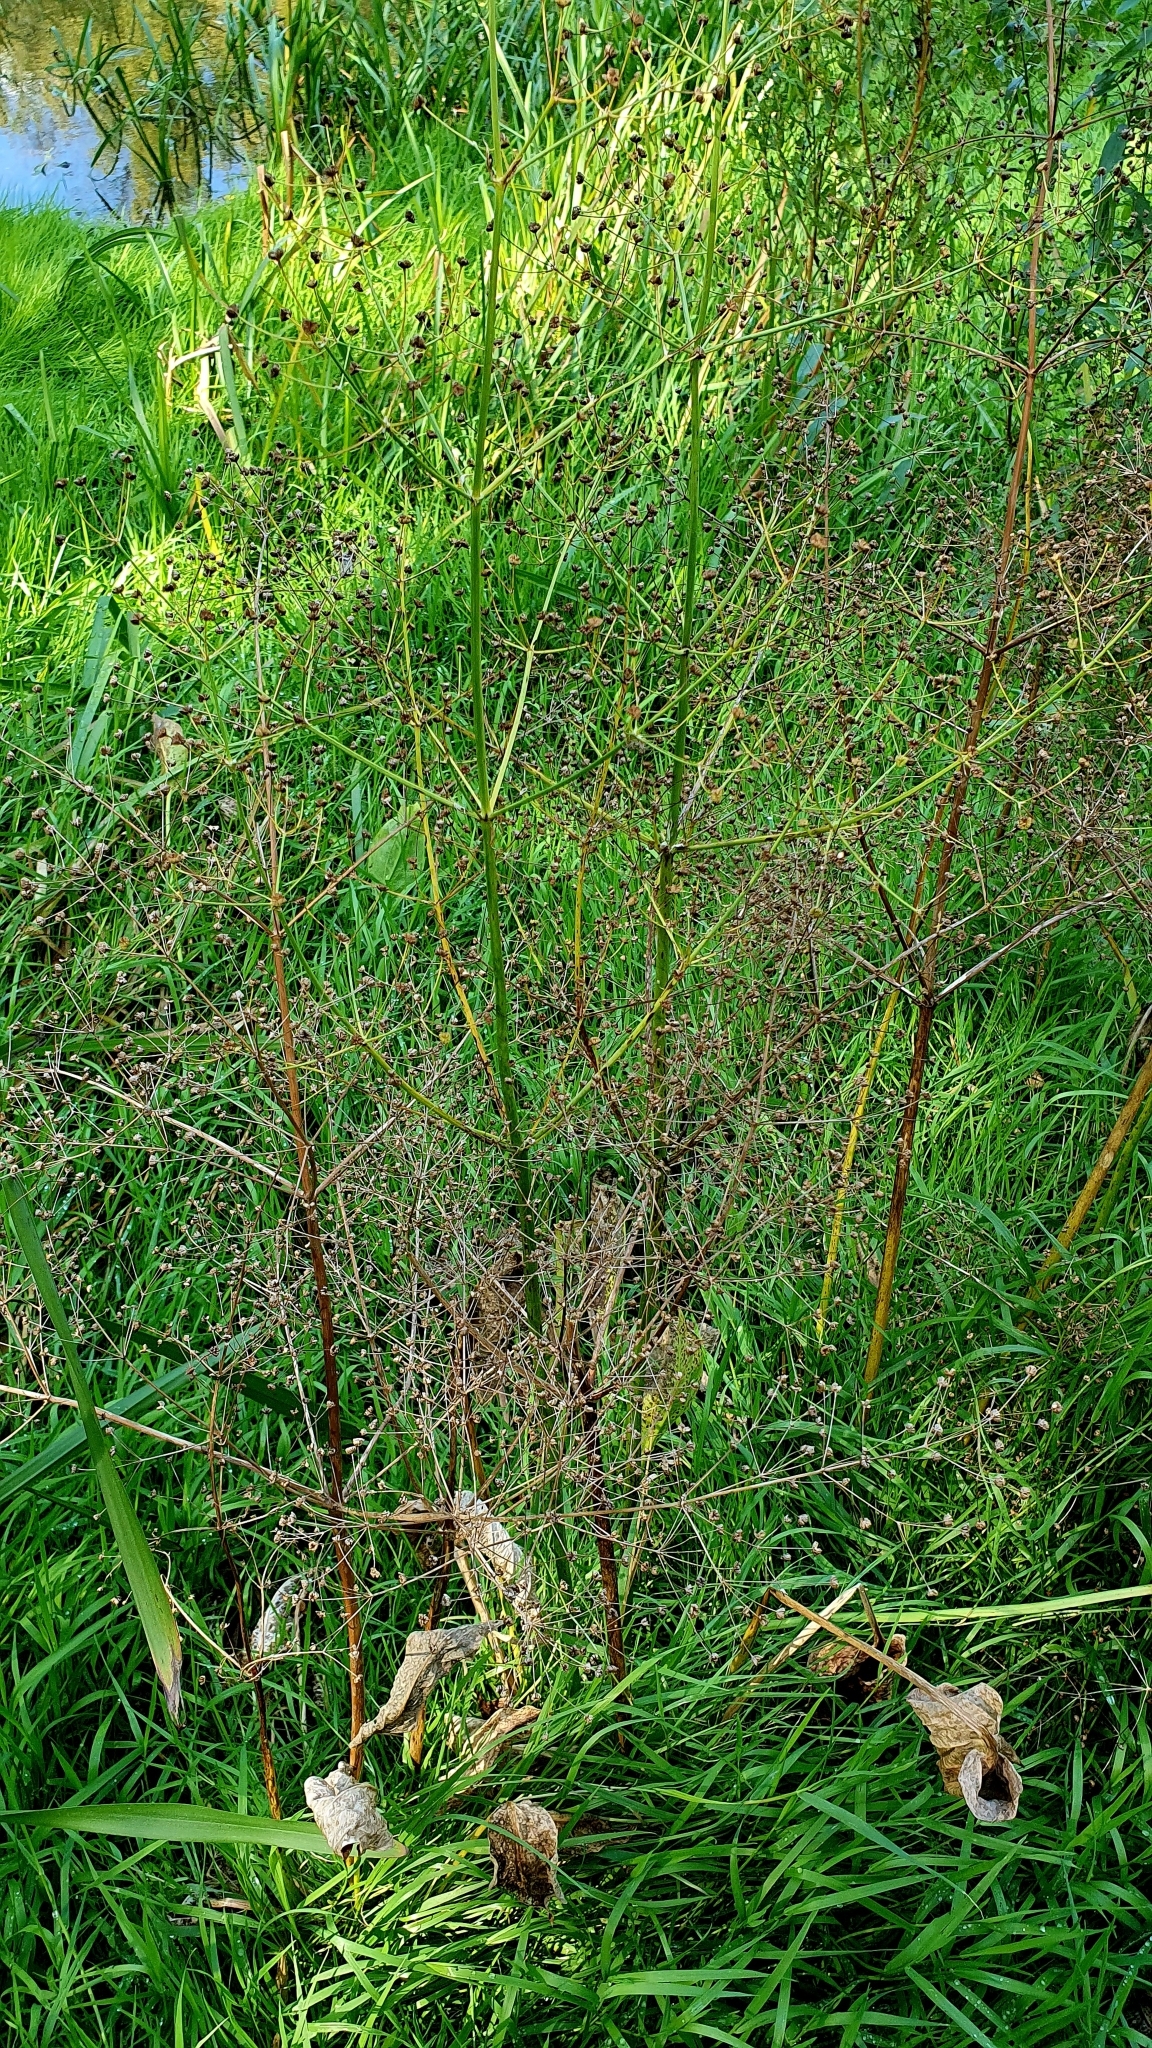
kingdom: Plantae
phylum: Tracheophyta
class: Liliopsida
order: Alismatales
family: Alismataceae
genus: Alisma
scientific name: Alisma plantago-aquatica
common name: Water-plantain
